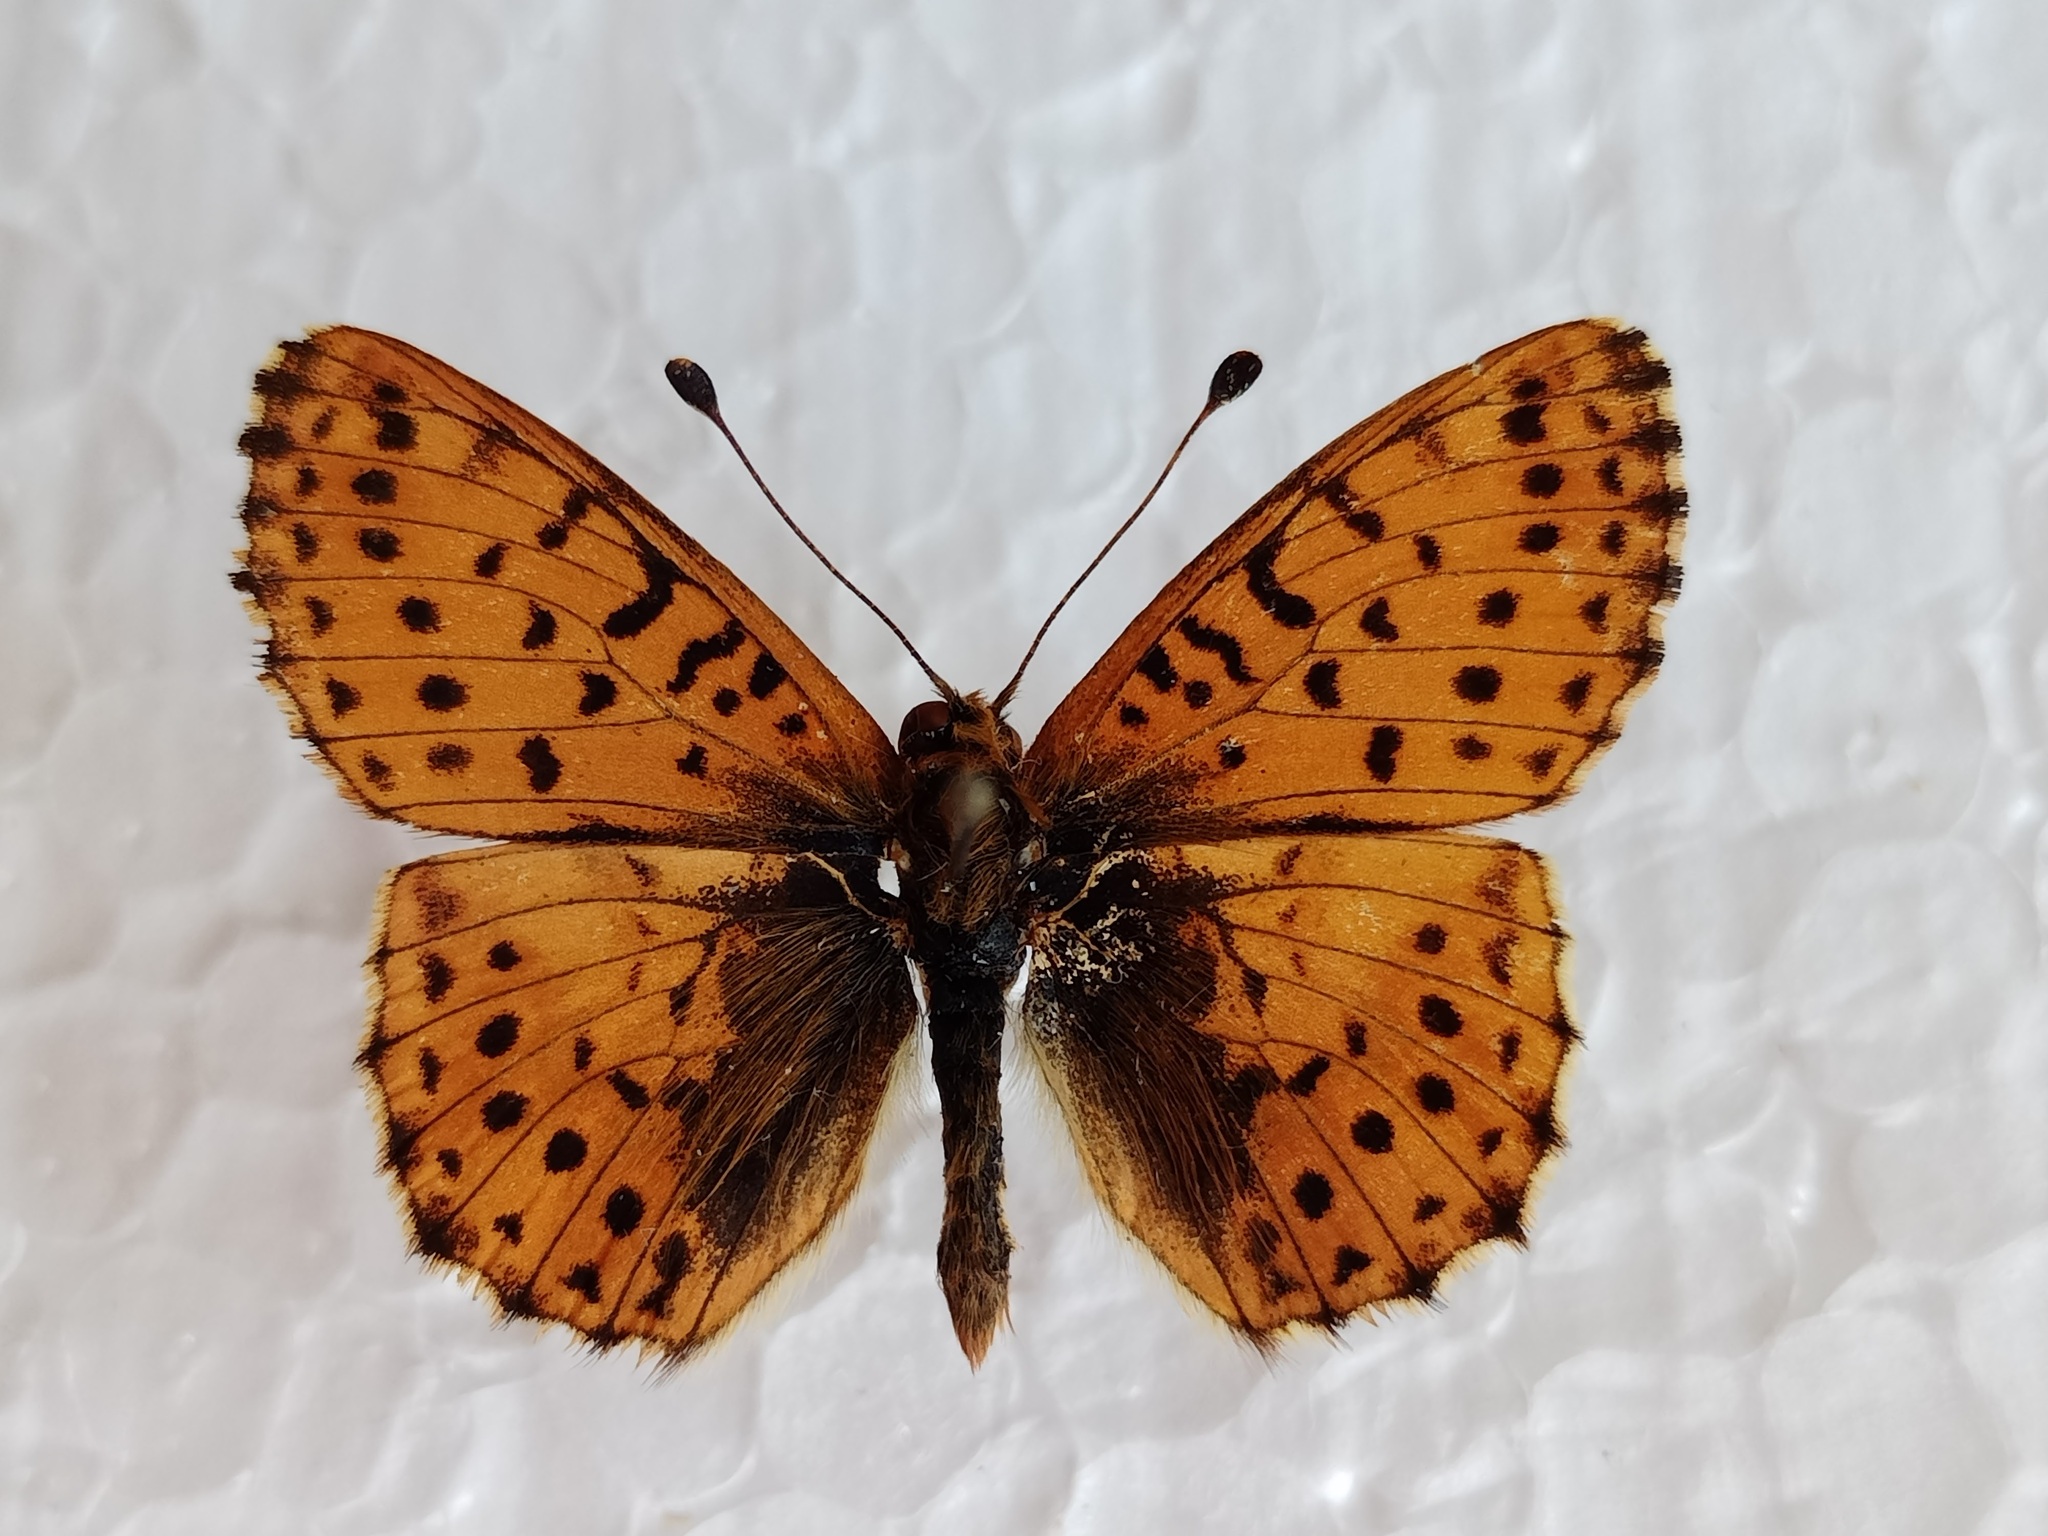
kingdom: Animalia
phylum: Arthropoda
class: Insecta
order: Lepidoptera
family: Nymphalidae
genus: Boloria
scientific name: Boloria graeca
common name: Balkan fritillary
